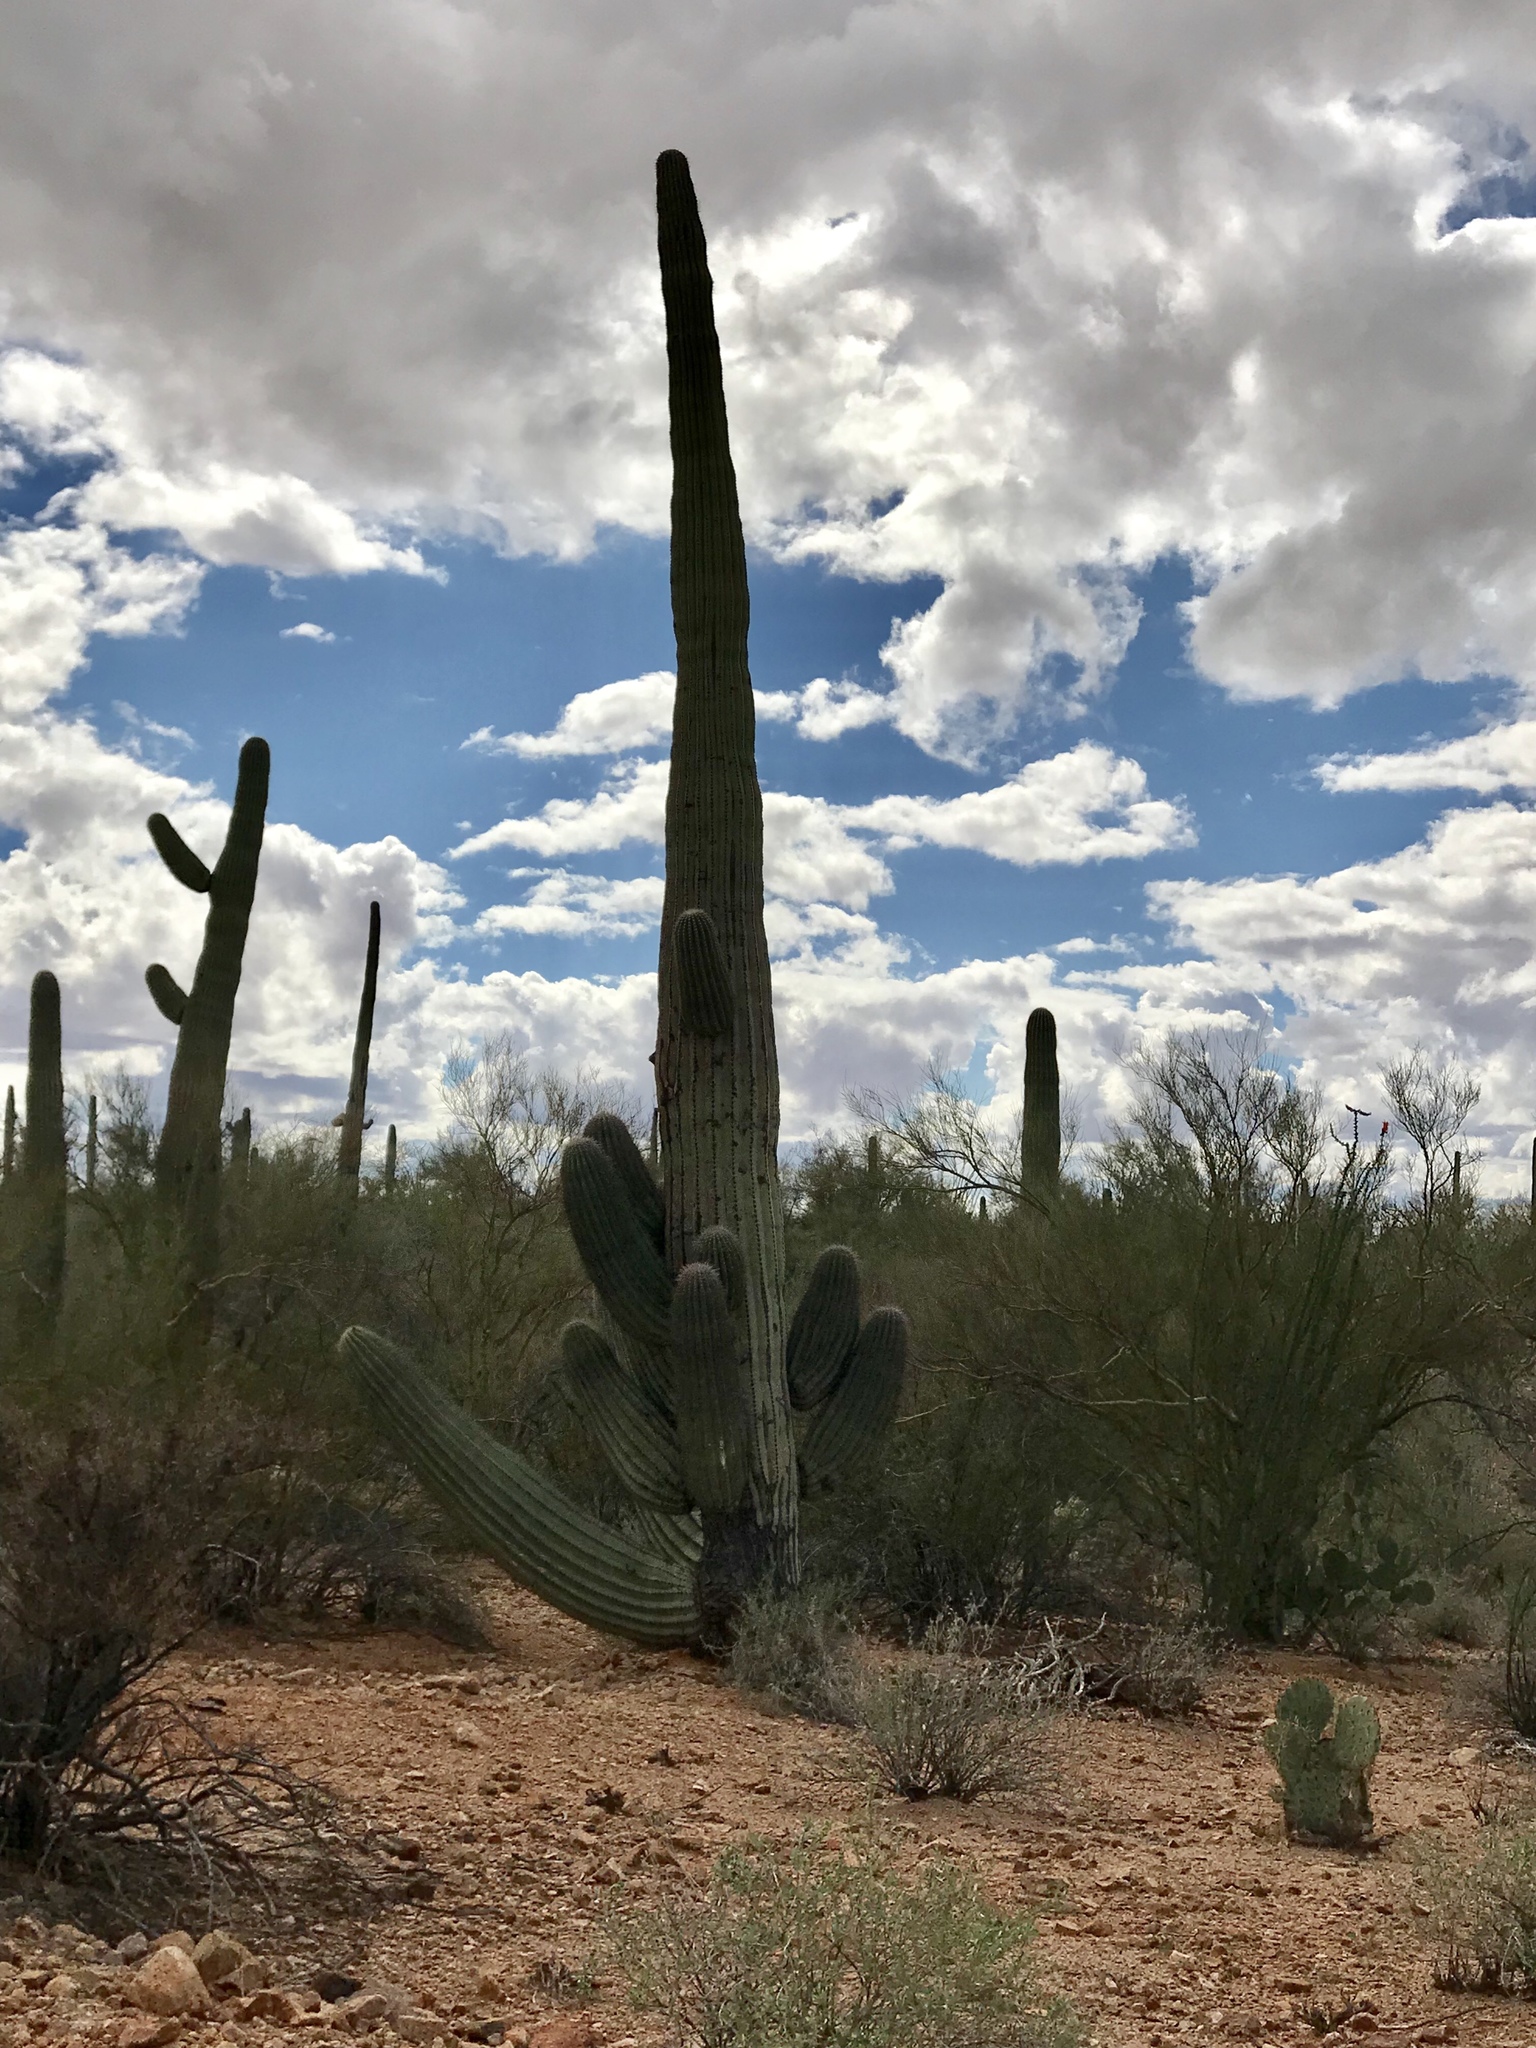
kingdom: Plantae
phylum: Tracheophyta
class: Magnoliopsida
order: Caryophyllales
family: Cactaceae
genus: Carnegiea
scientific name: Carnegiea gigantea
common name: Saguaro
